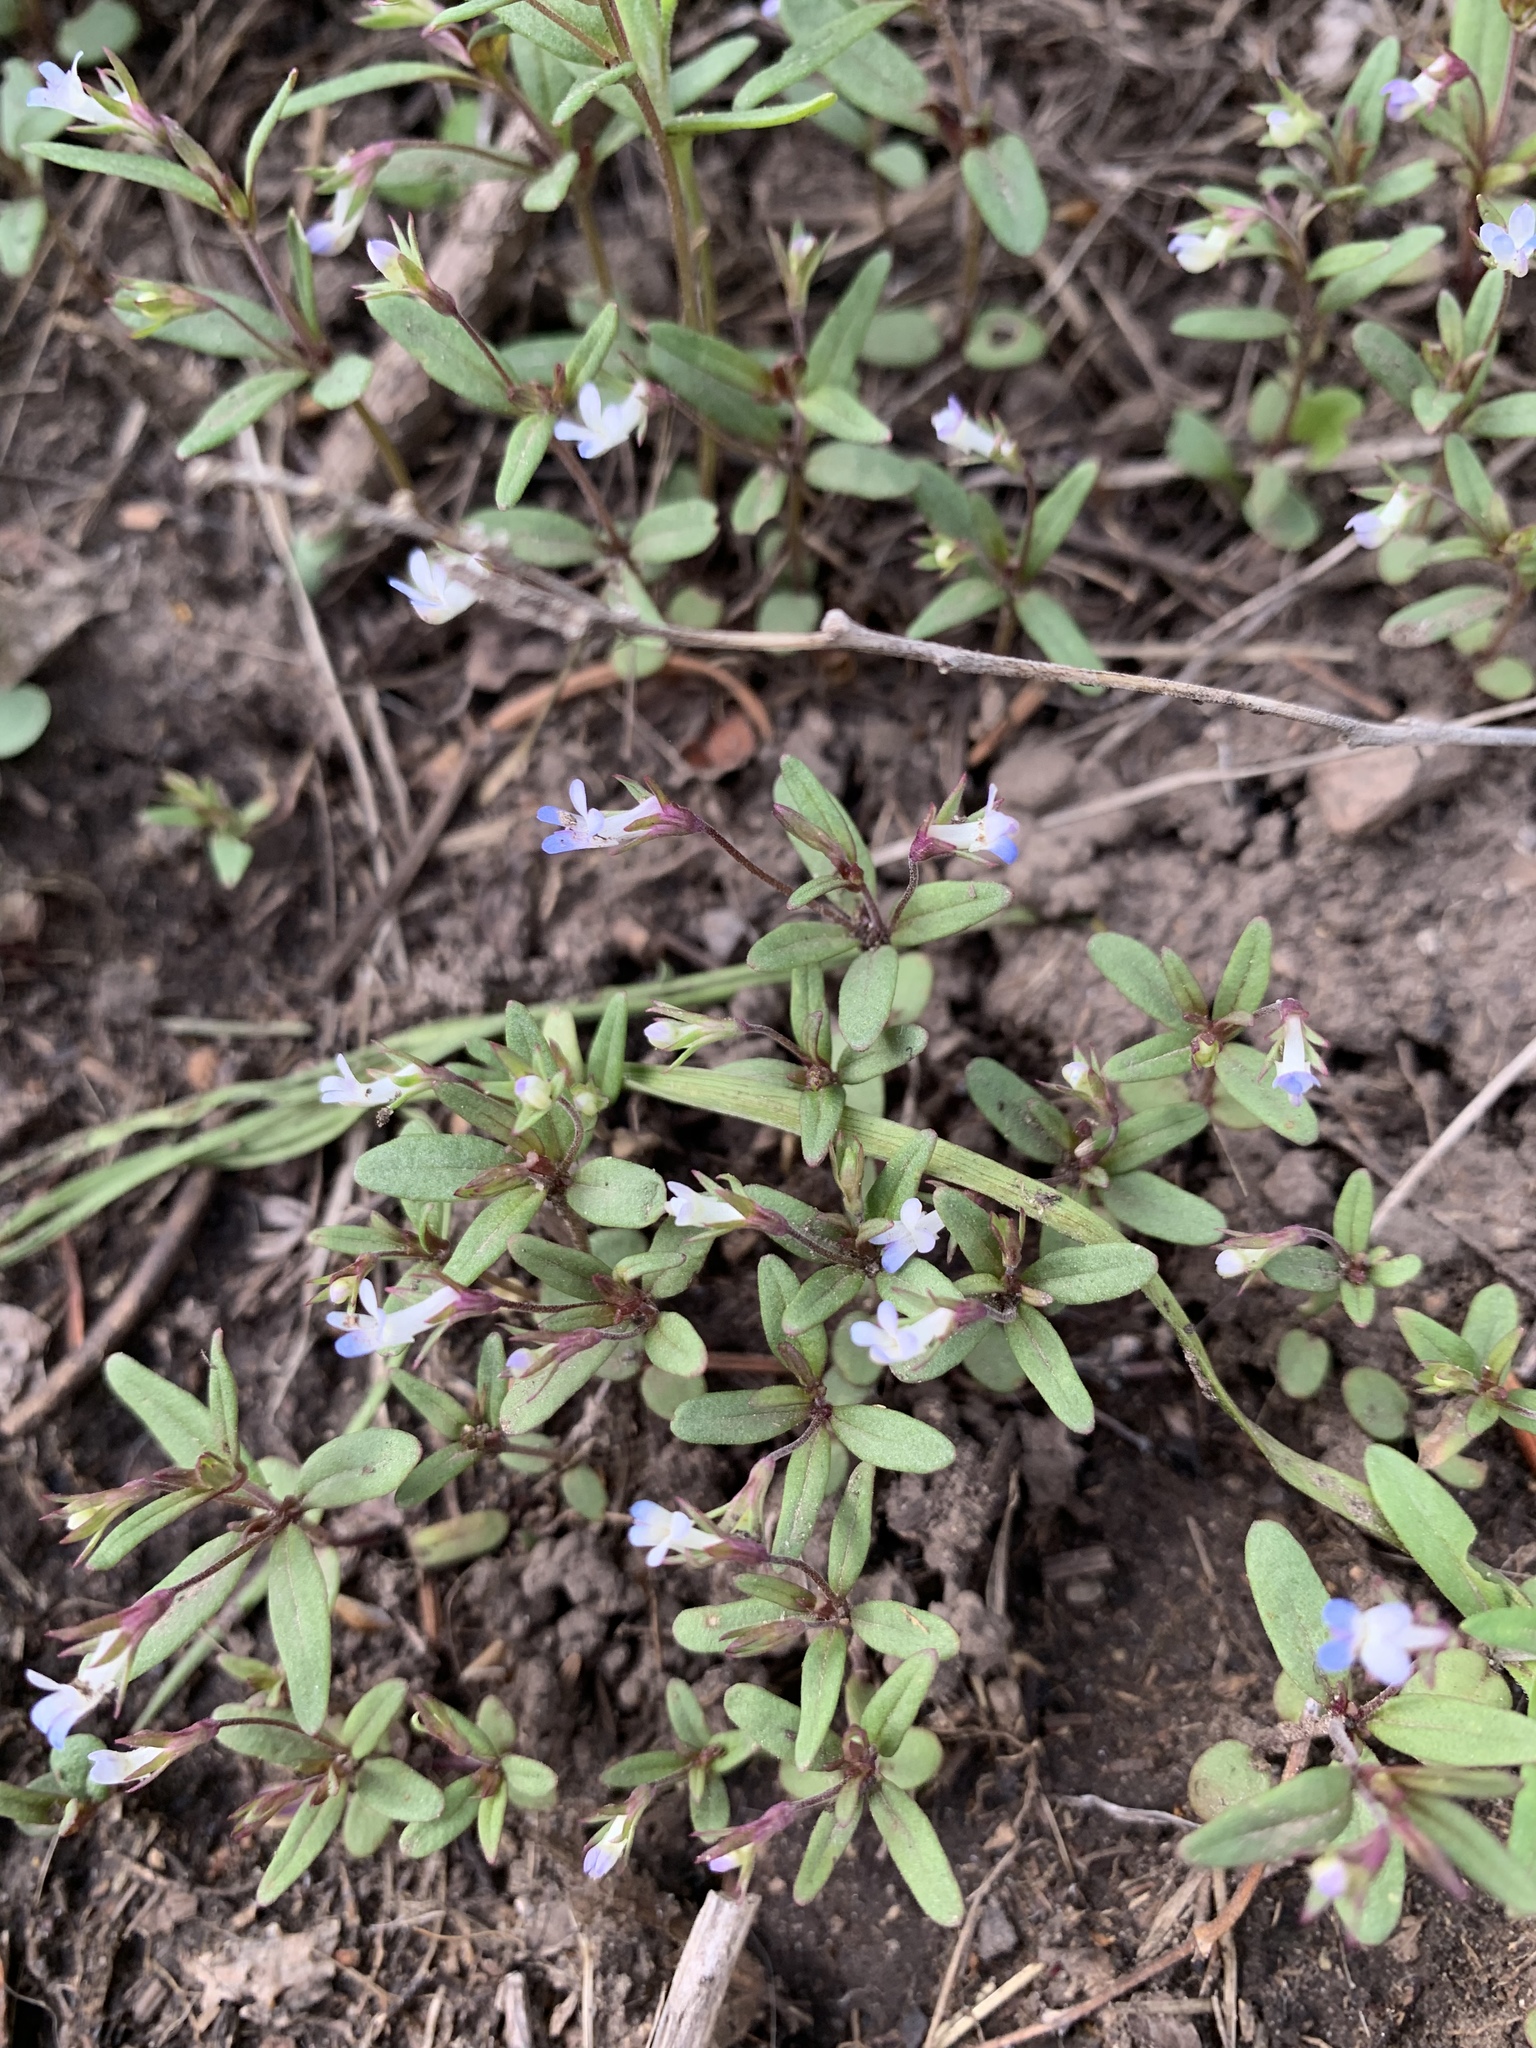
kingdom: Plantae
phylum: Tracheophyta
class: Magnoliopsida
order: Lamiales
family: Plantaginaceae
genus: Collinsia
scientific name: Collinsia parviflora
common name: Blue-lips
